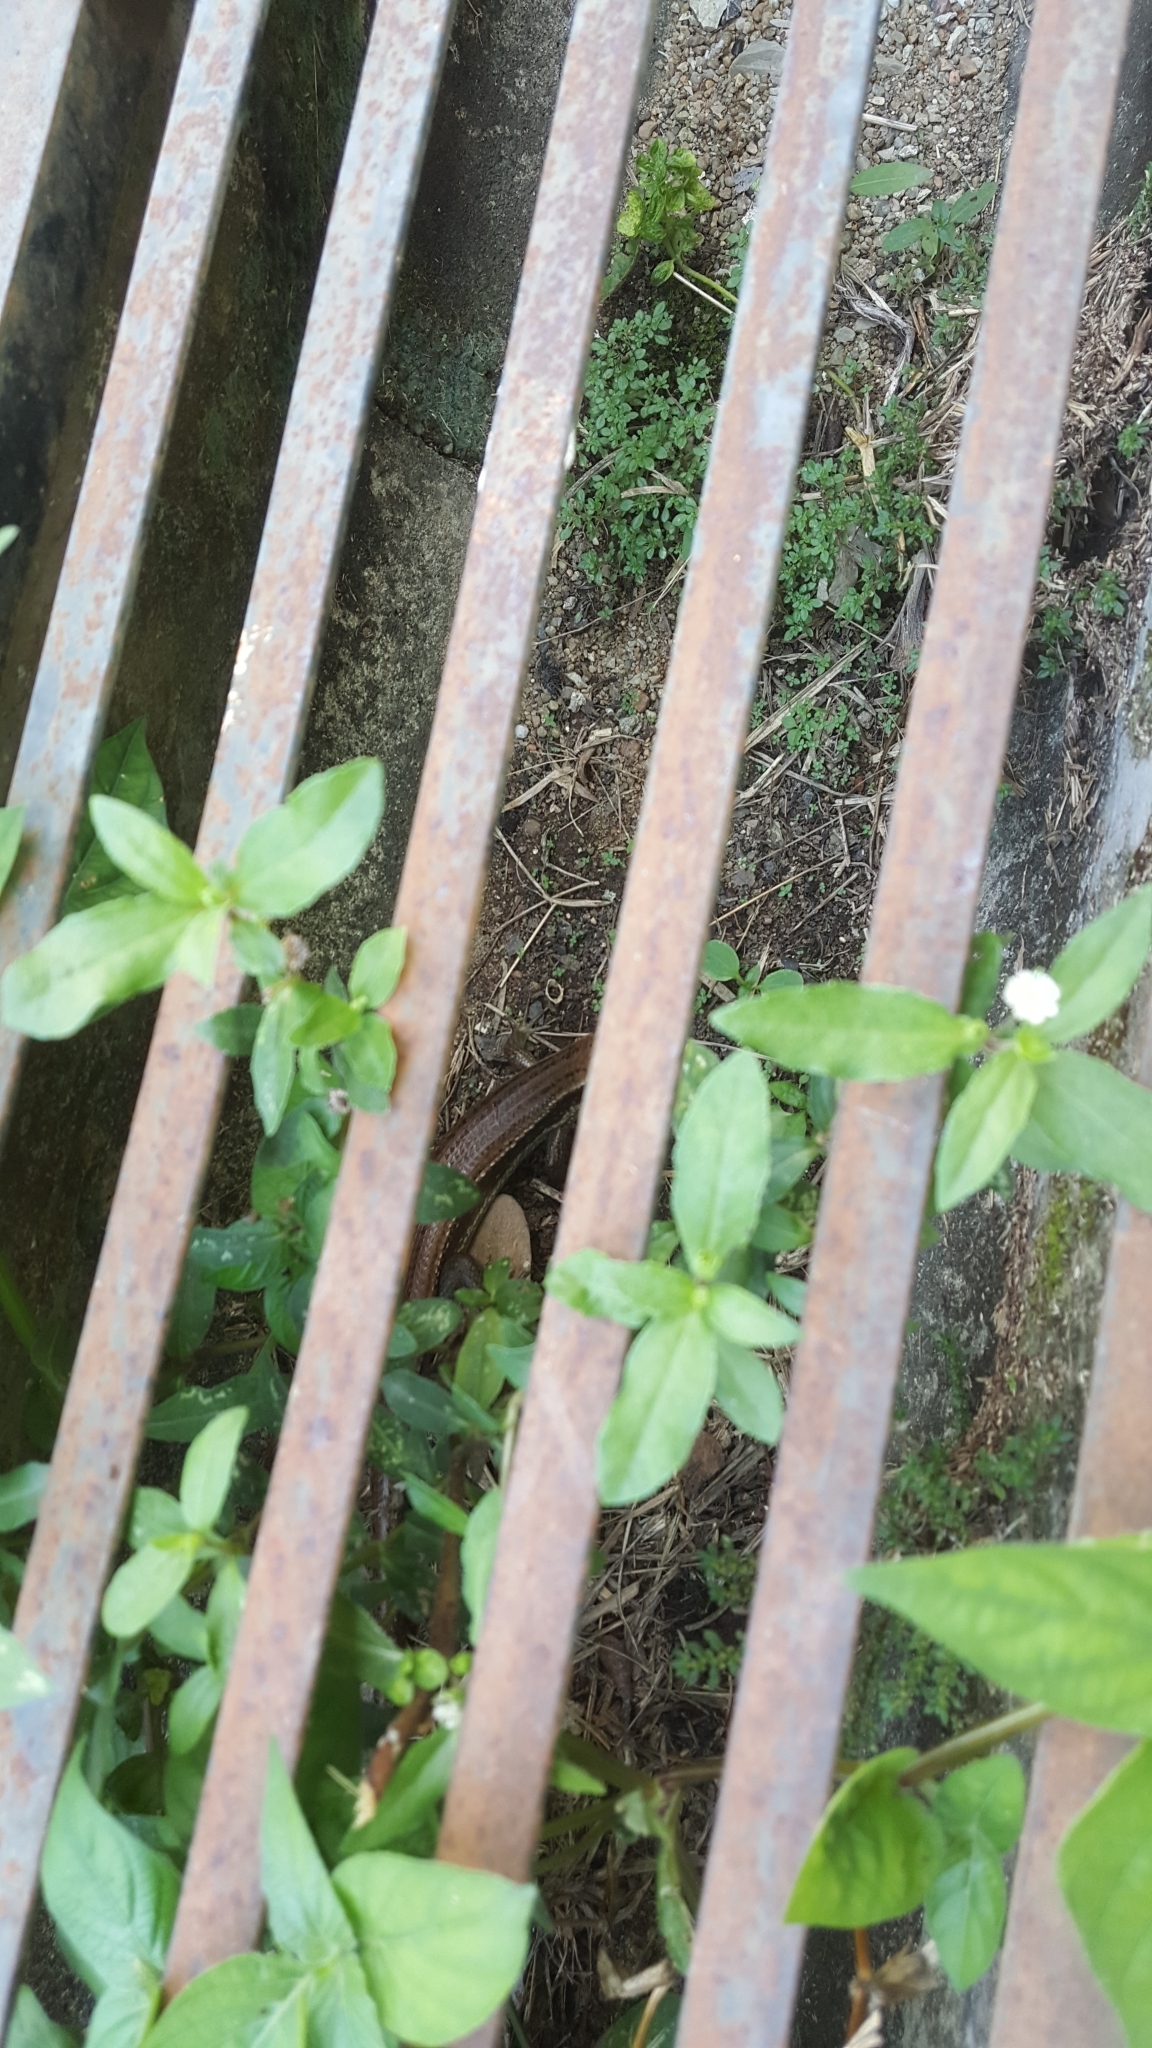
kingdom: Animalia
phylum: Chordata
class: Squamata
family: Scincidae
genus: Eutropis
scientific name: Eutropis longicaudata
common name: Long-tailed sun skink
